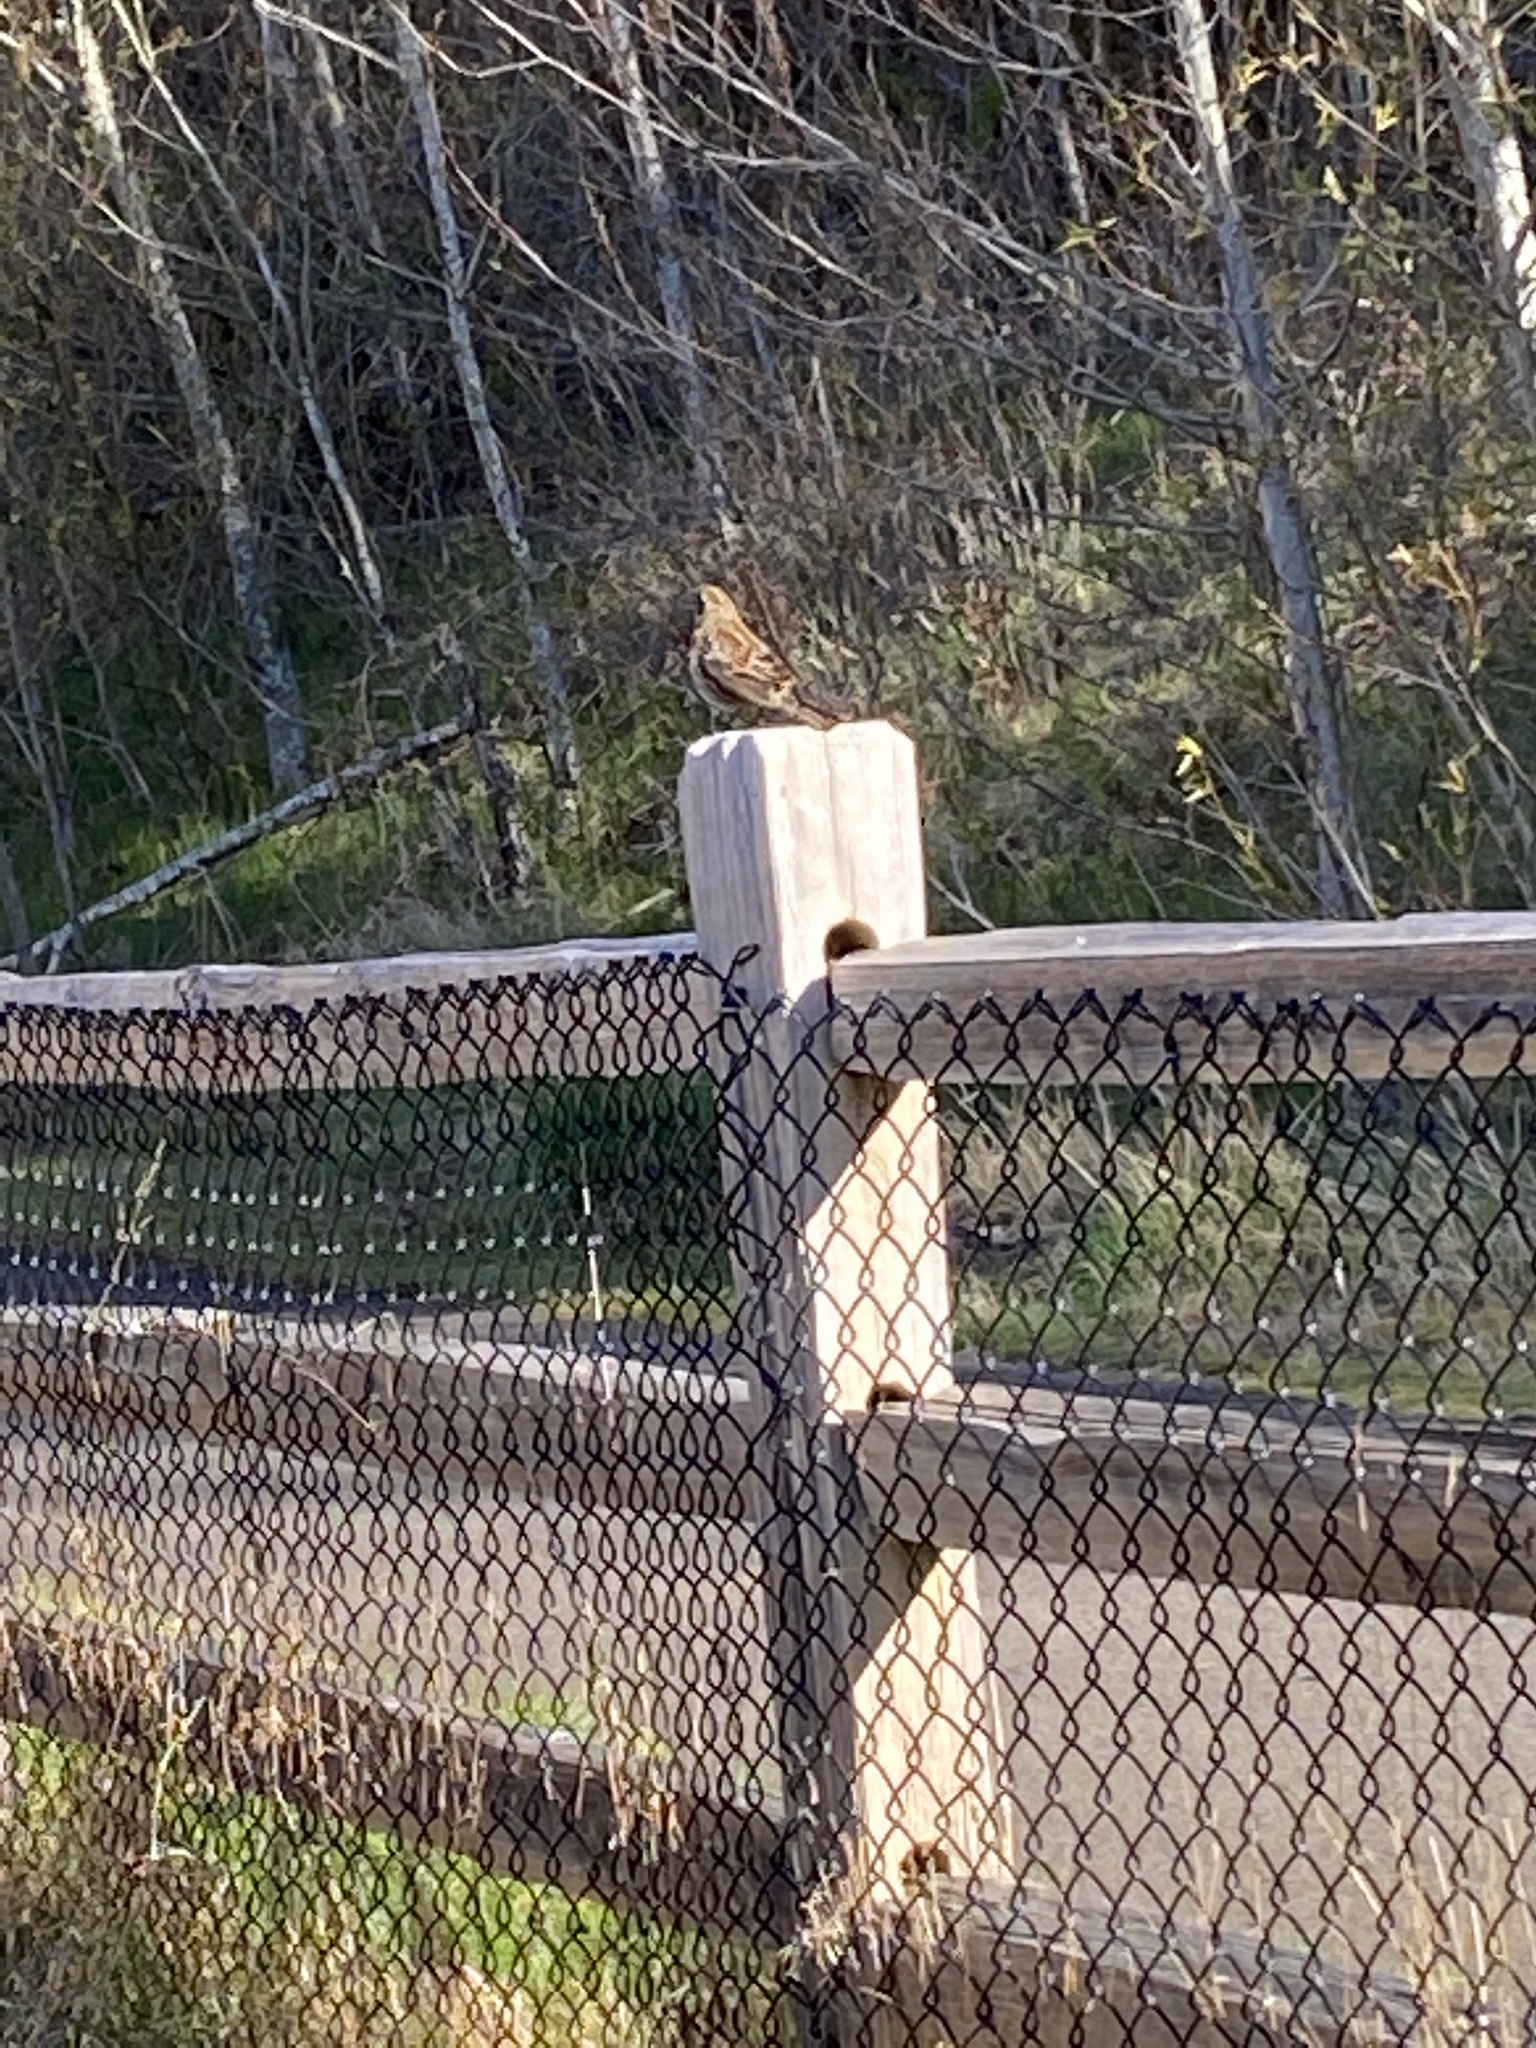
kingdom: Animalia
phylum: Chordata
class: Aves
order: Passeriformes
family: Icteridae
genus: Agelaius
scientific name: Agelaius phoeniceus
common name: Red-winged blackbird
